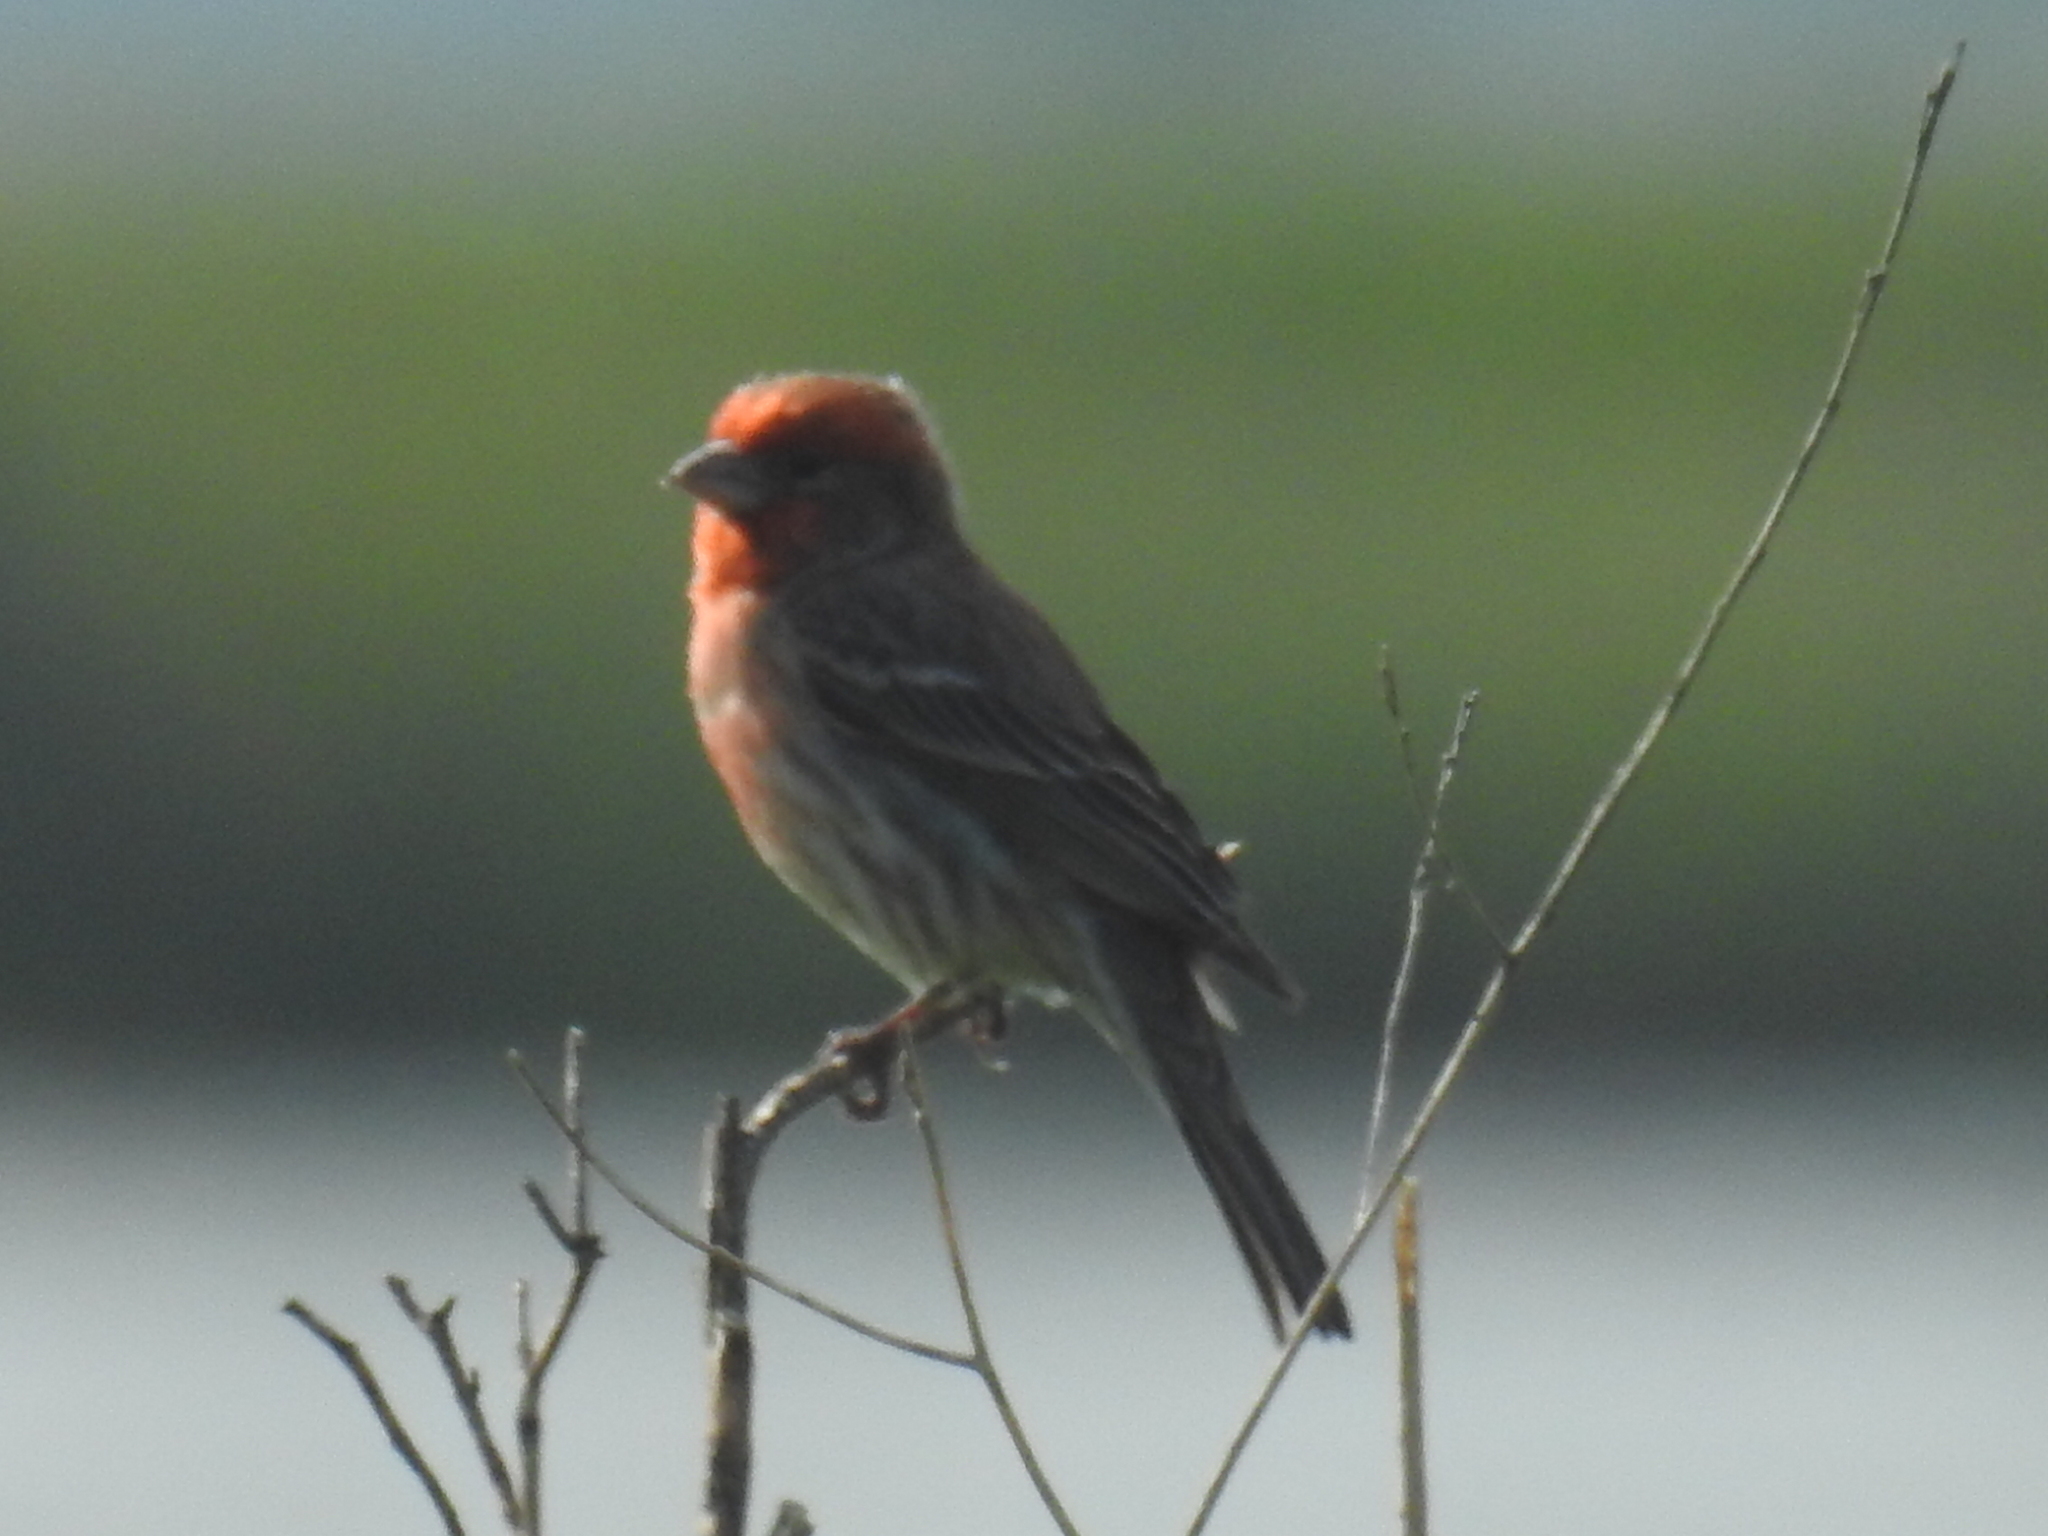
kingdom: Animalia
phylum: Chordata
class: Aves
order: Passeriformes
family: Fringillidae
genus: Haemorhous
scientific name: Haemorhous mexicanus
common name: House finch
